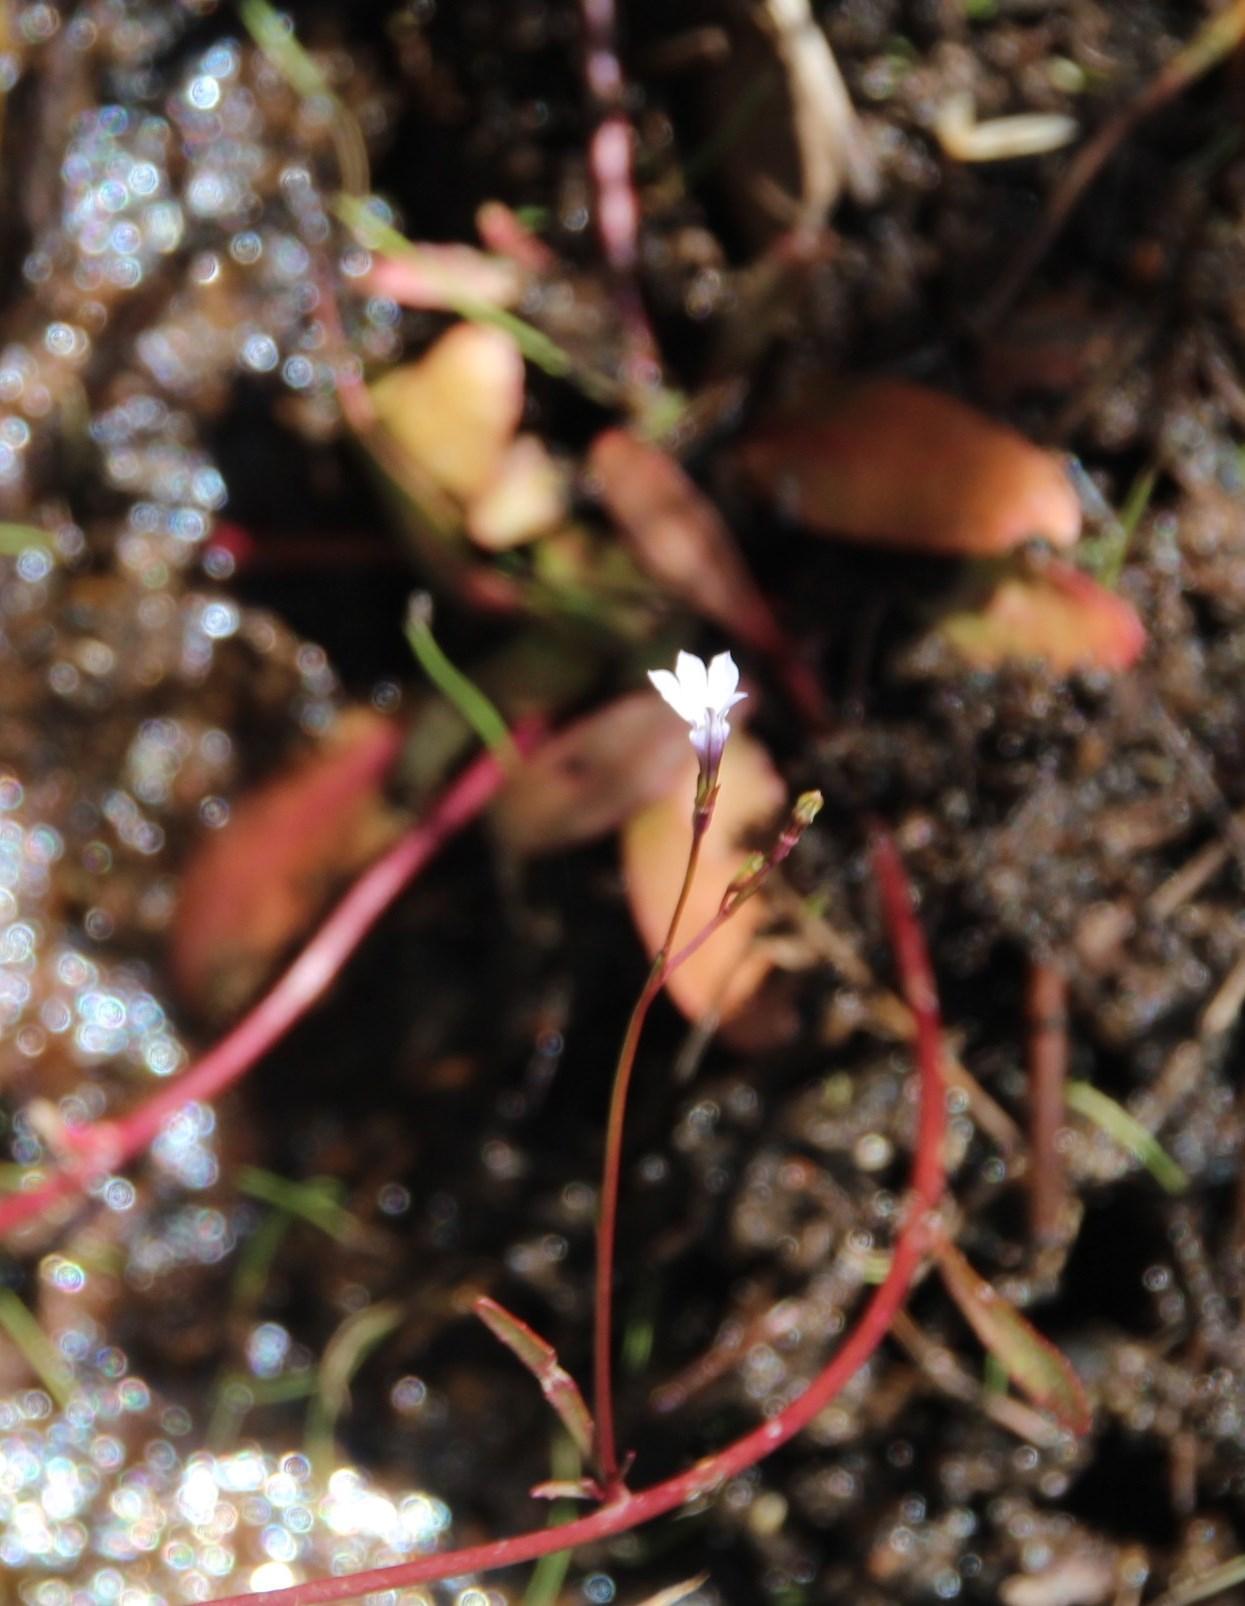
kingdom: Plantae
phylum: Tracheophyta
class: Magnoliopsida
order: Asterales
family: Campanulaceae
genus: Wimmerella
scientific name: Wimmerella arabidea
